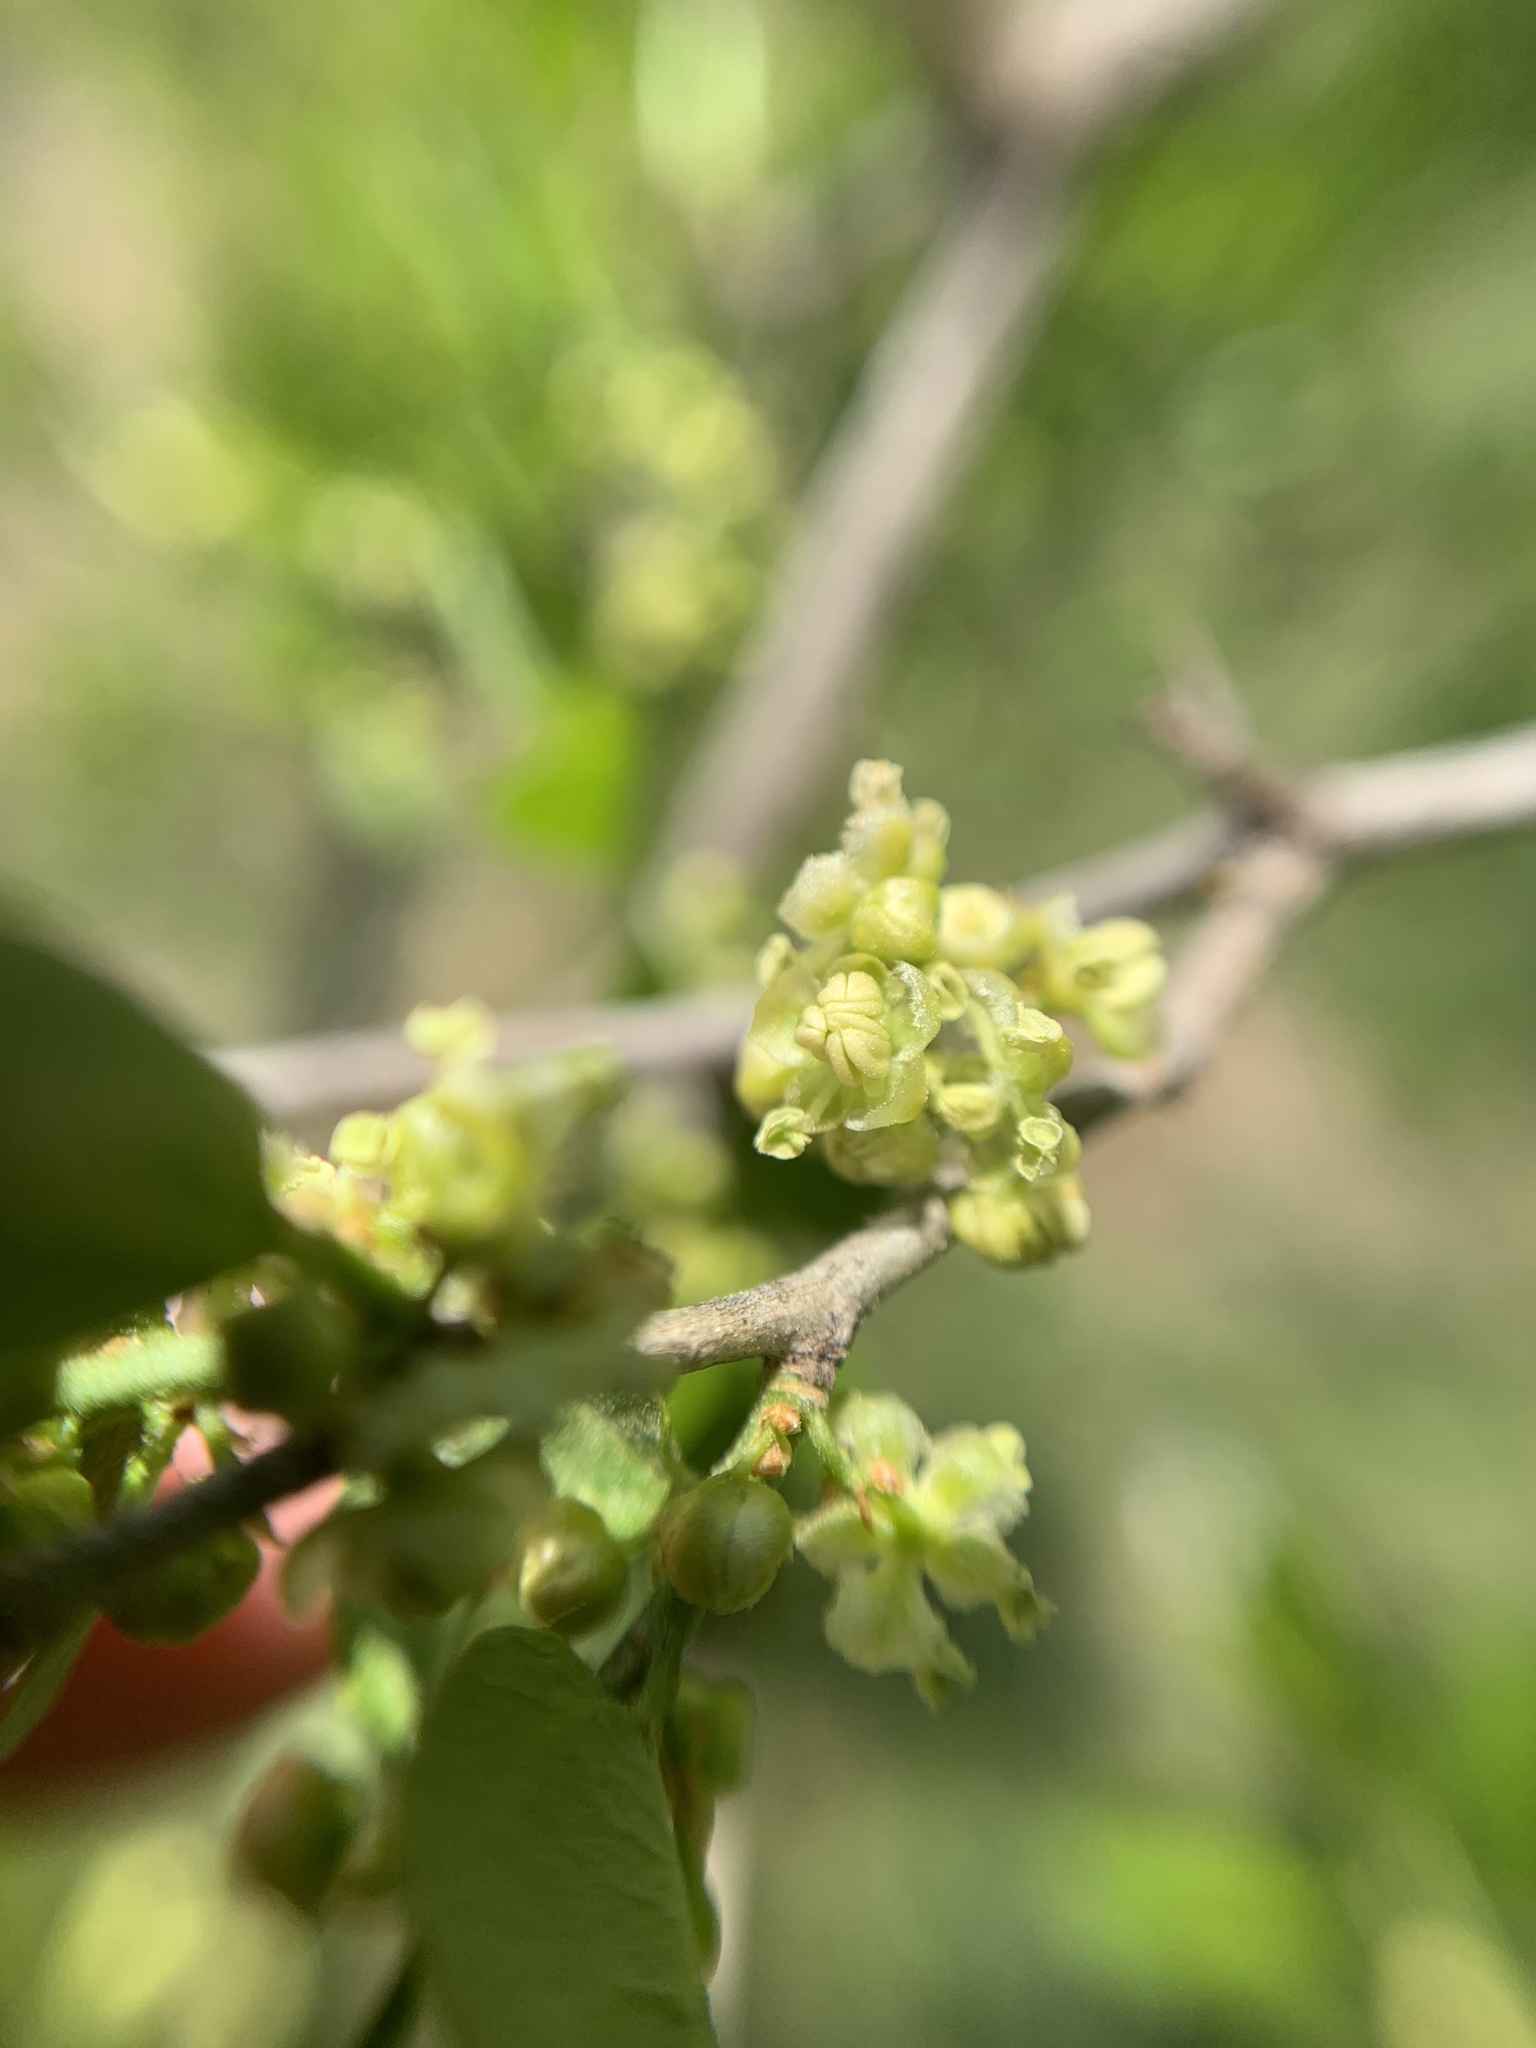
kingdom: Plantae
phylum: Tracheophyta
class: Magnoliopsida
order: Rosales
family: Cannabaceae
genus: Celtis
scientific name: Celtis tala
